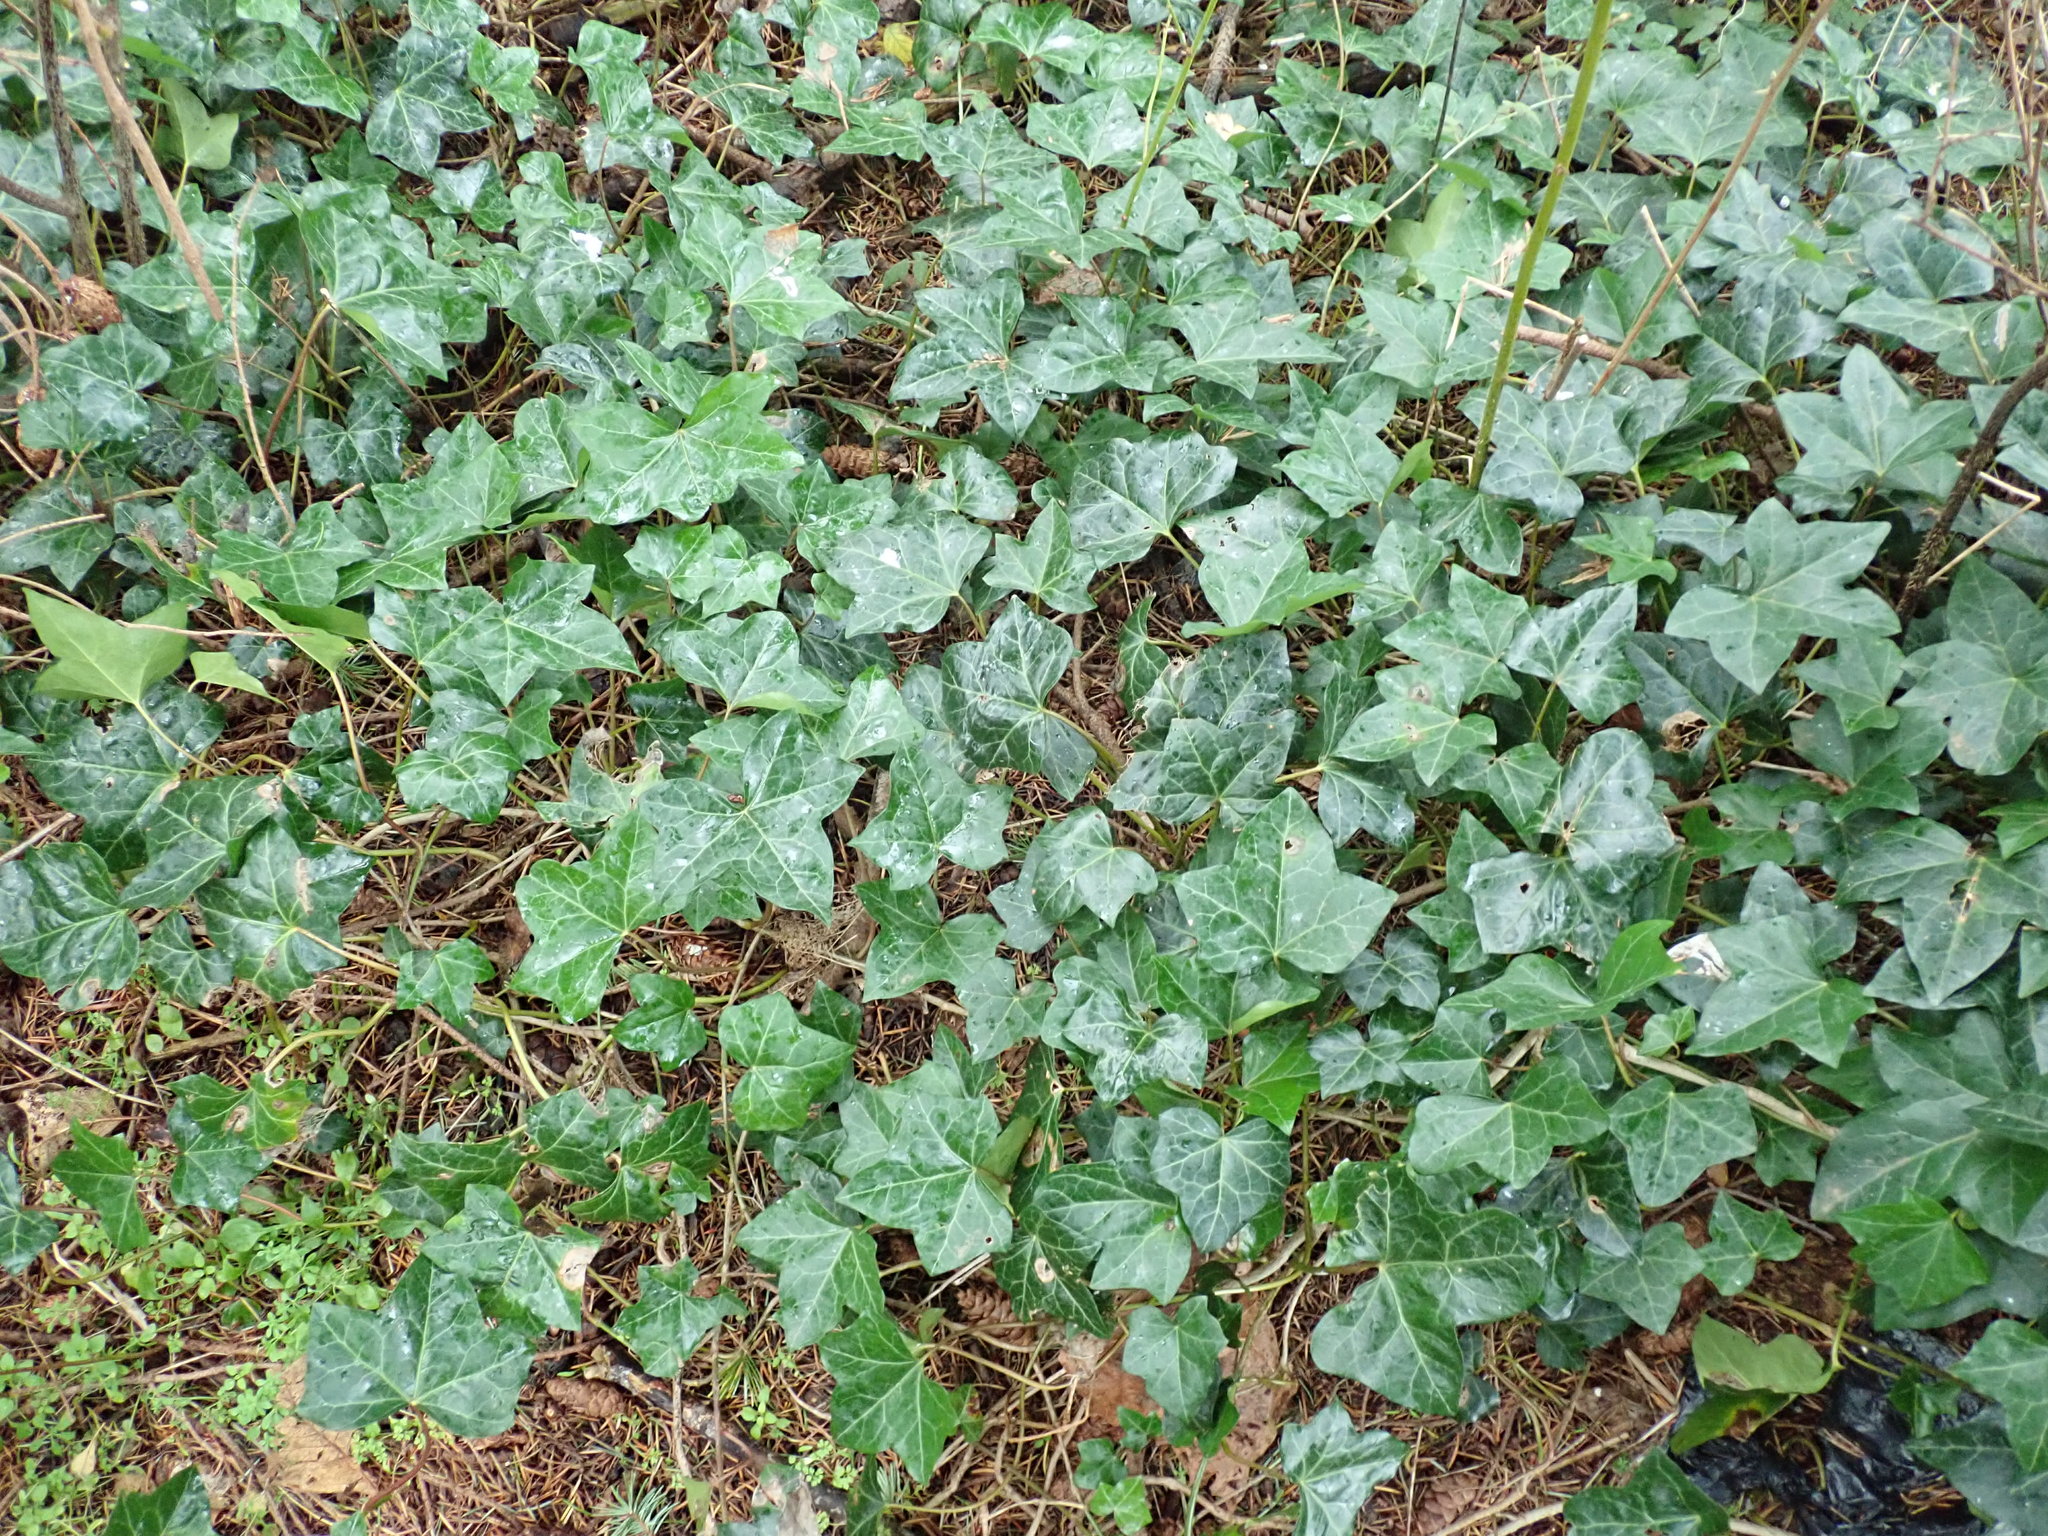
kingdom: Plantae
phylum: Tracheophyta
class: Magnoliopsida
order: Apiales
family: Araliaceae
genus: Hedera
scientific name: Hedera helix
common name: Ivy
